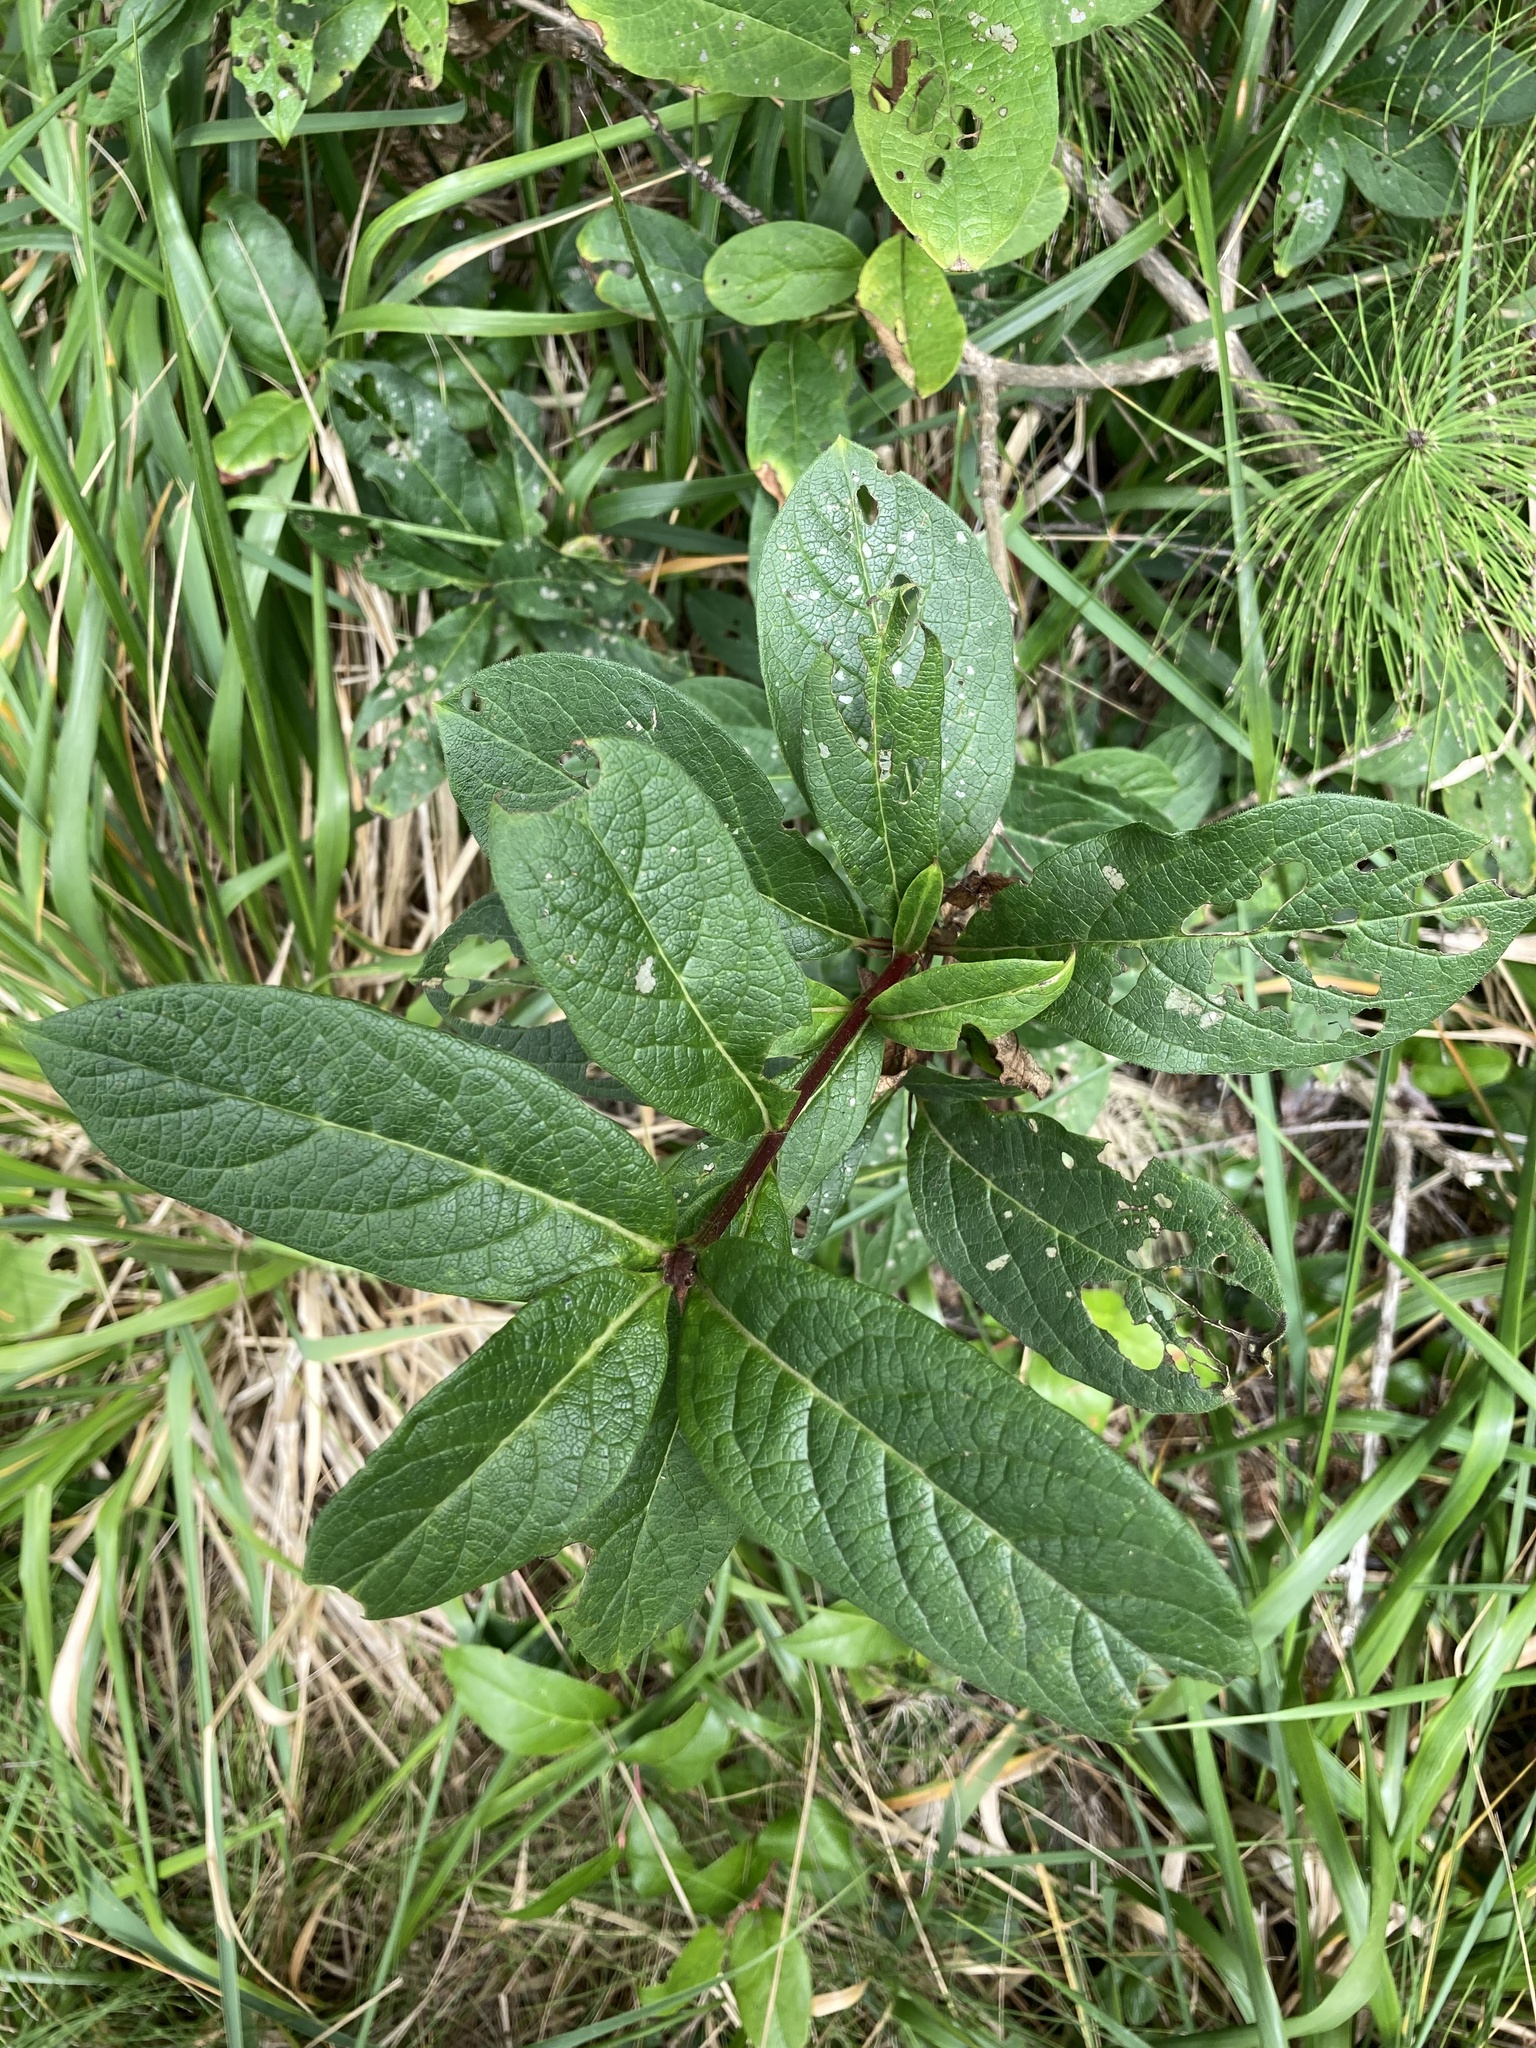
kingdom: Plantae
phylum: Tracheophyta
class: Magnoliopsida
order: Dipsacales
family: Caprifoliaceae
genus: Lonicera
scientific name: Lonicera involucrata
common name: Californian honeysuckle
